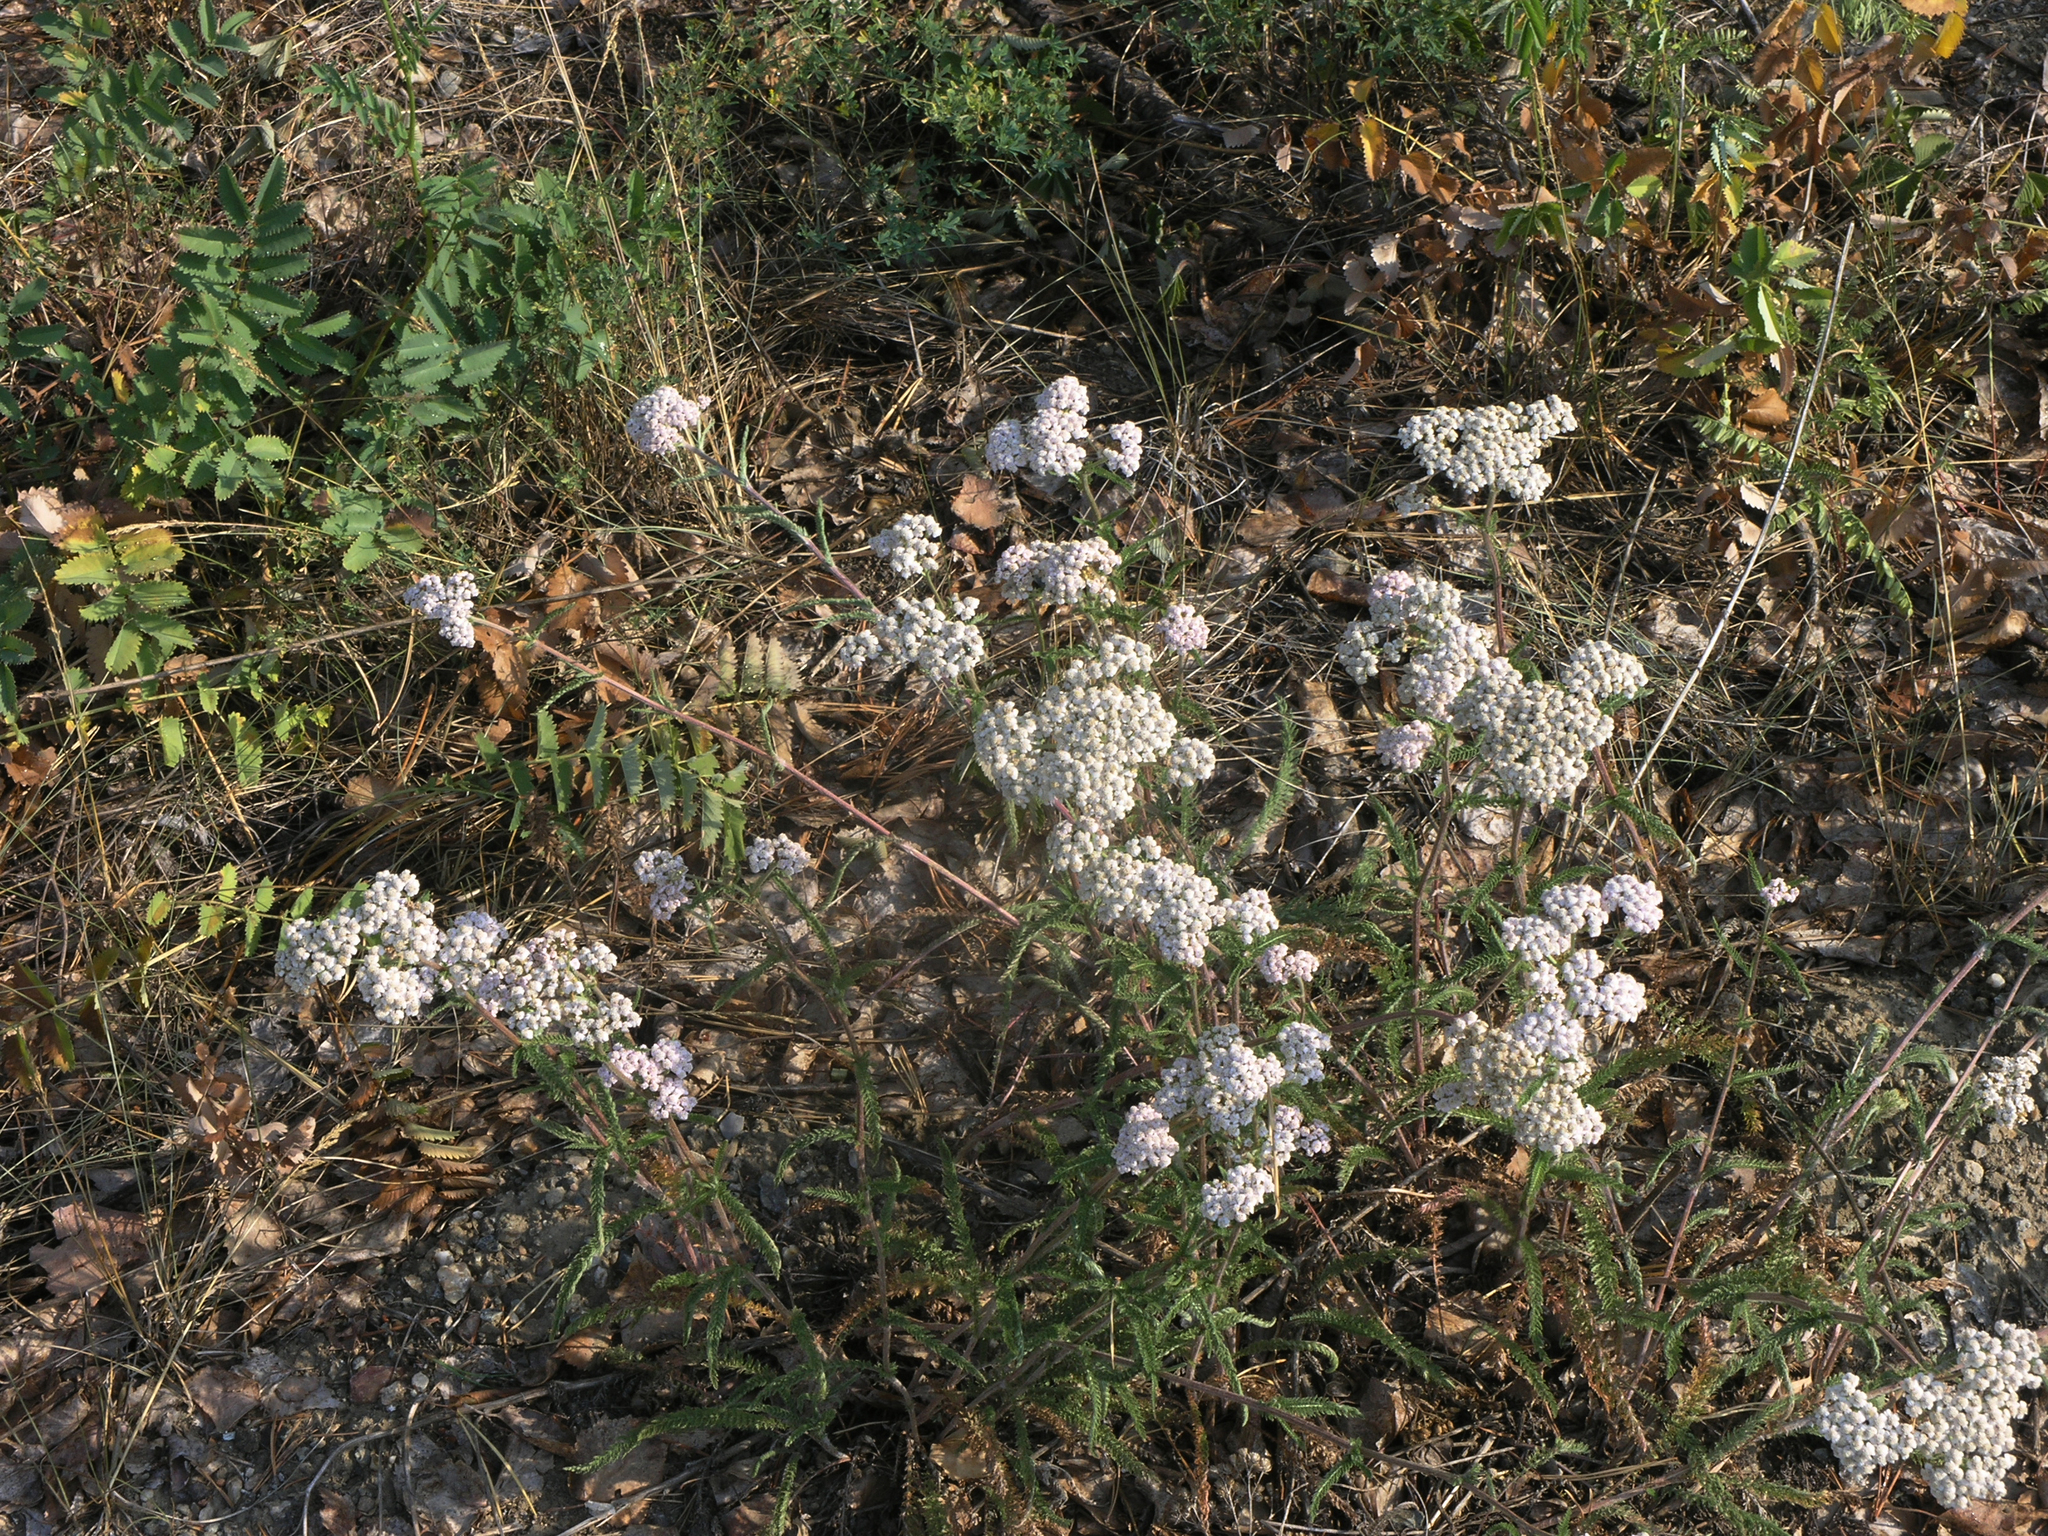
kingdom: Plantae
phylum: Tracheophyta
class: Magnoliopsida
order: Asterales
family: Asteraceae
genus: Achillea
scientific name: Achillea millefolium
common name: Yarrow
